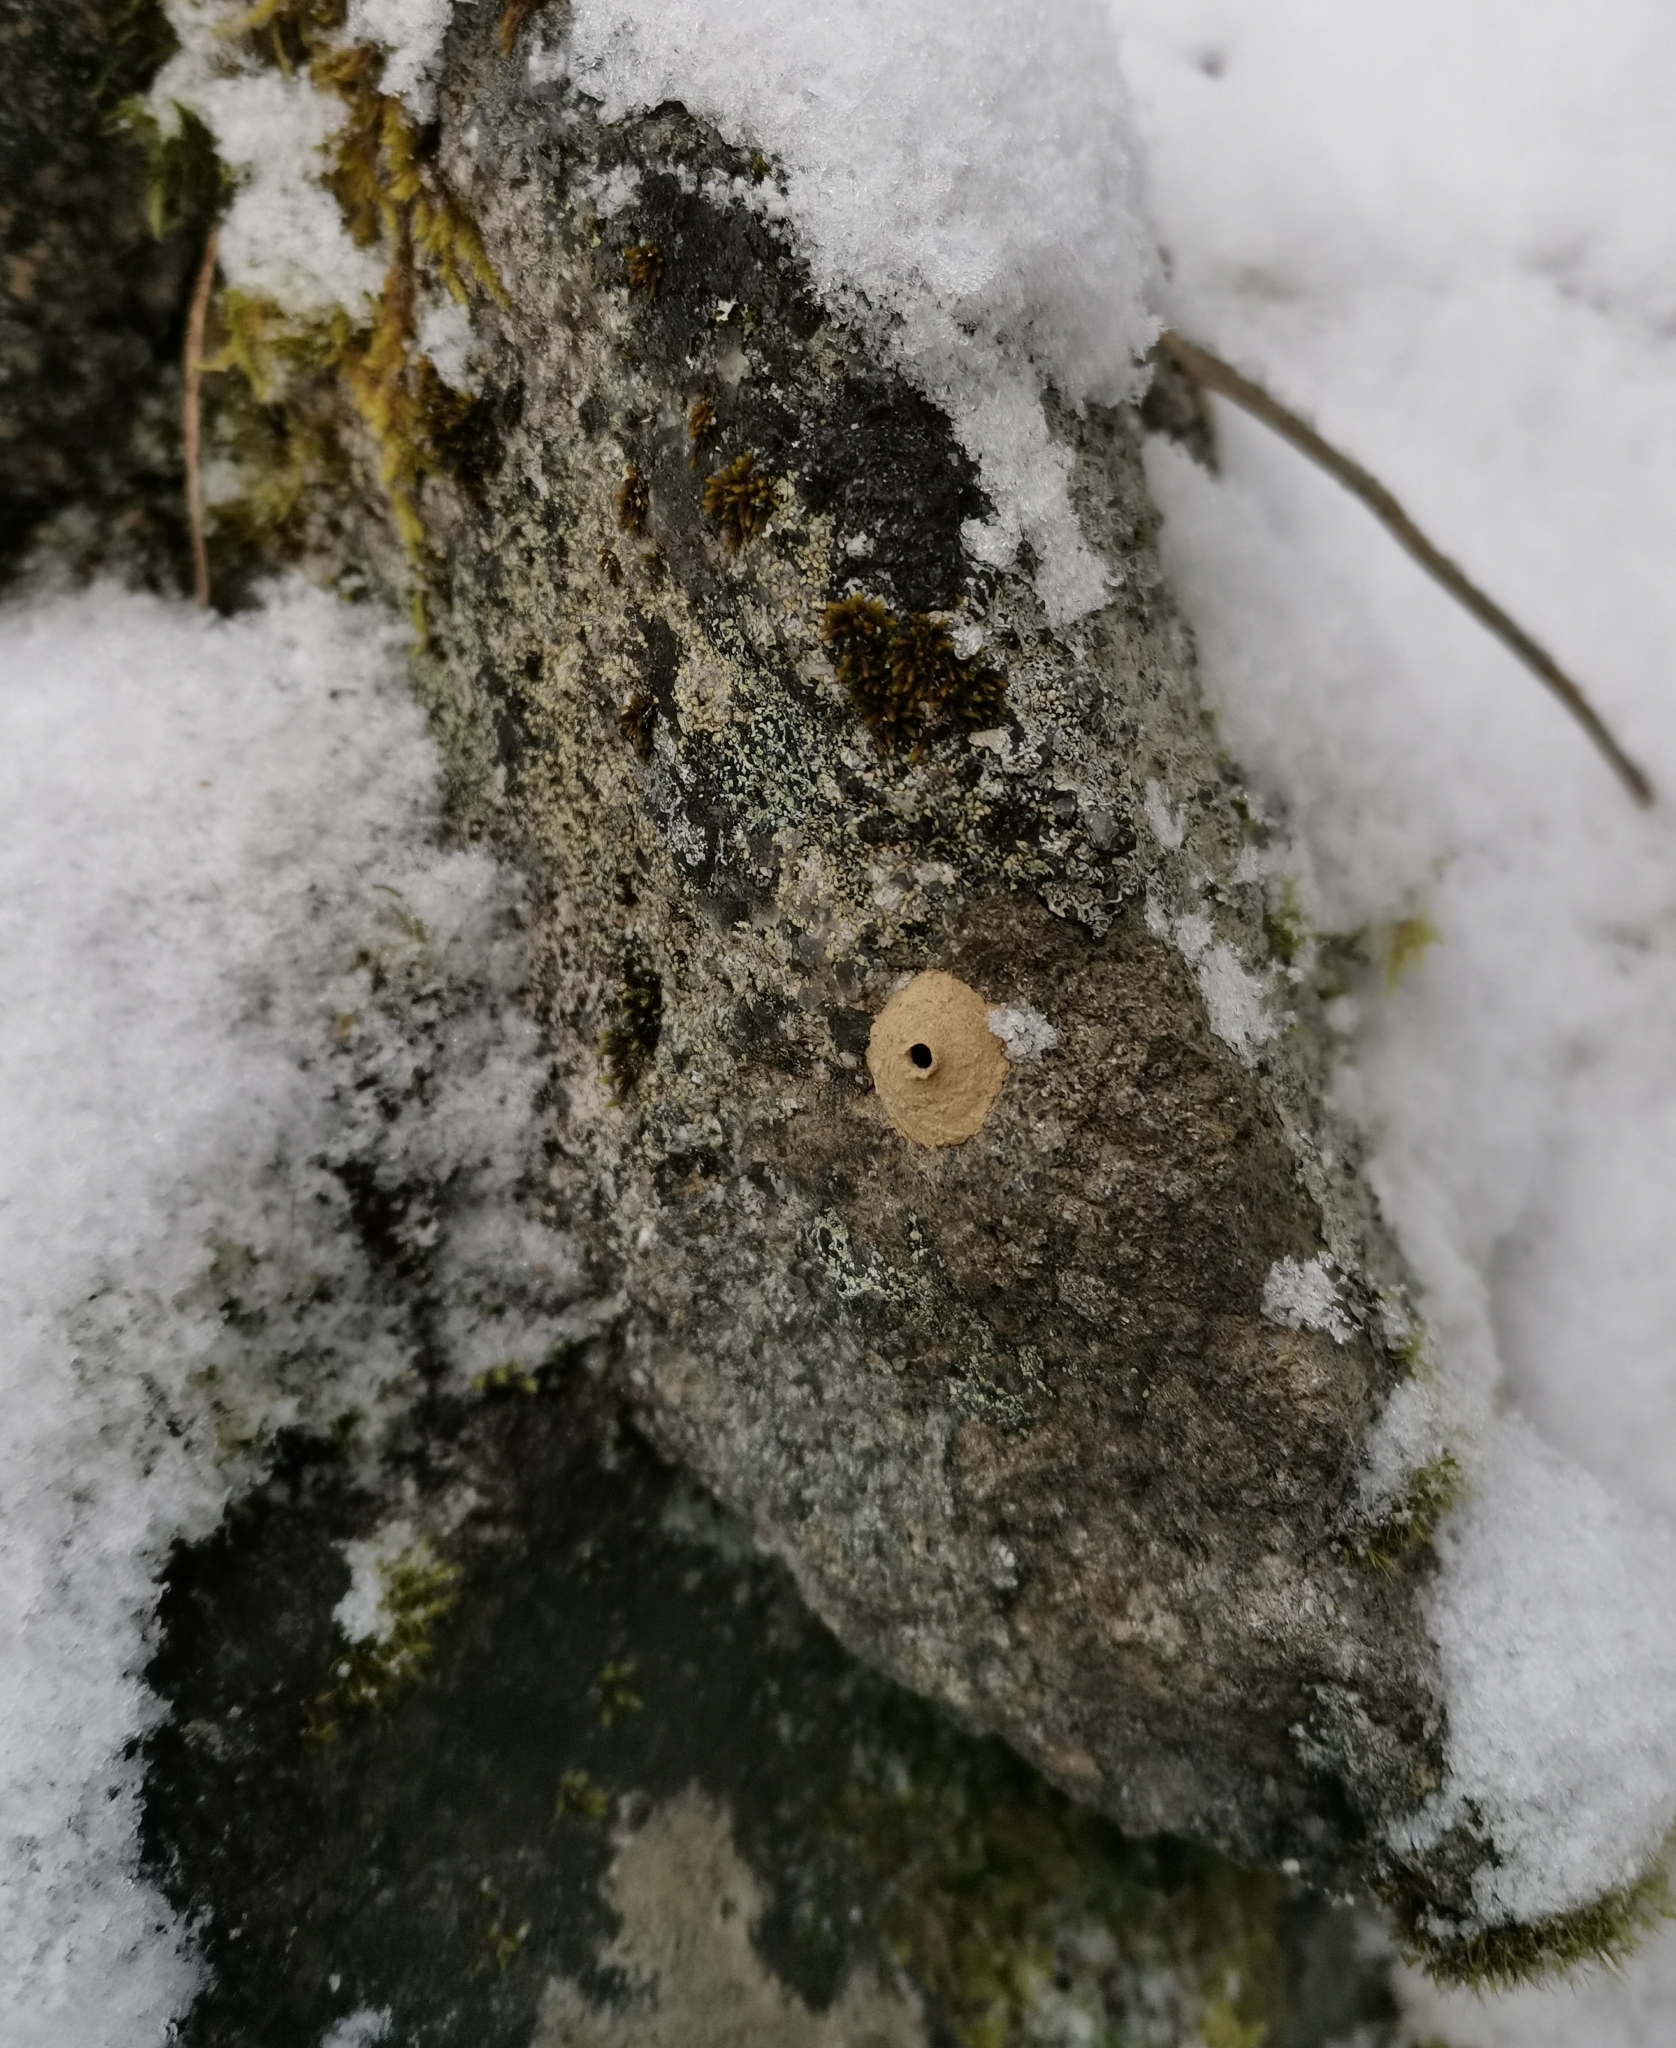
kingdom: Animalia
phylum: Arthropoda
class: Insecta
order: Hymenoptera
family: Eumenidae
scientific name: Eumenidae
